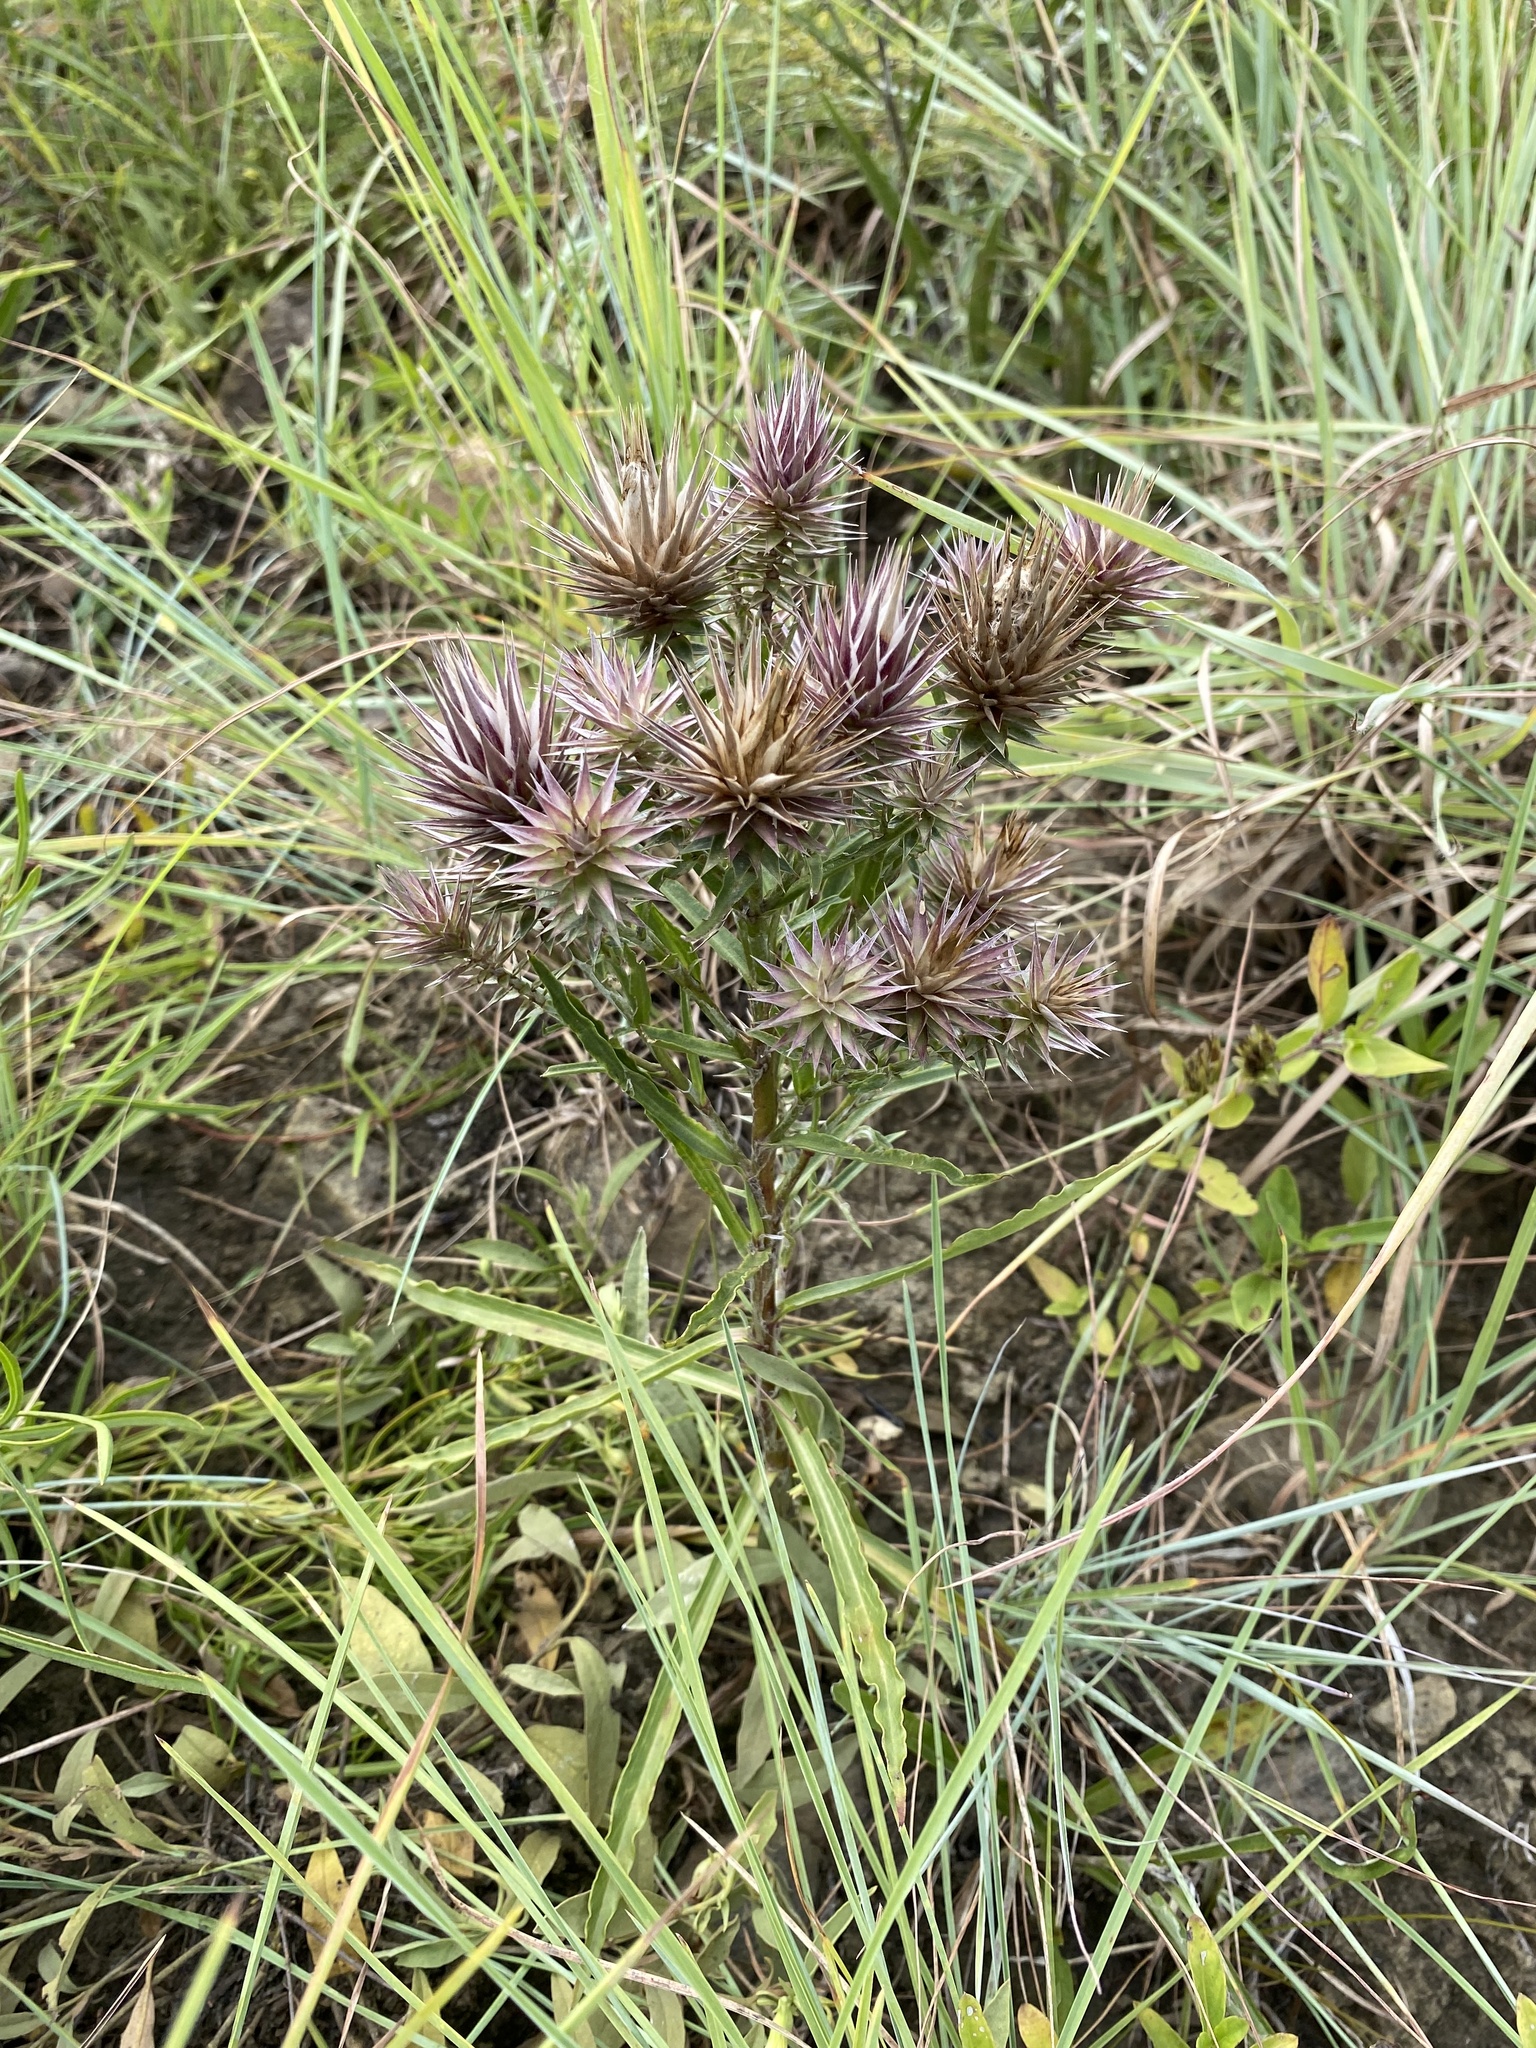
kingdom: Plantae
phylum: Tracheophyta
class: Magnoliopsida
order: Asterales
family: Asteraceae
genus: Macledium
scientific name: Macledium zeyheri
